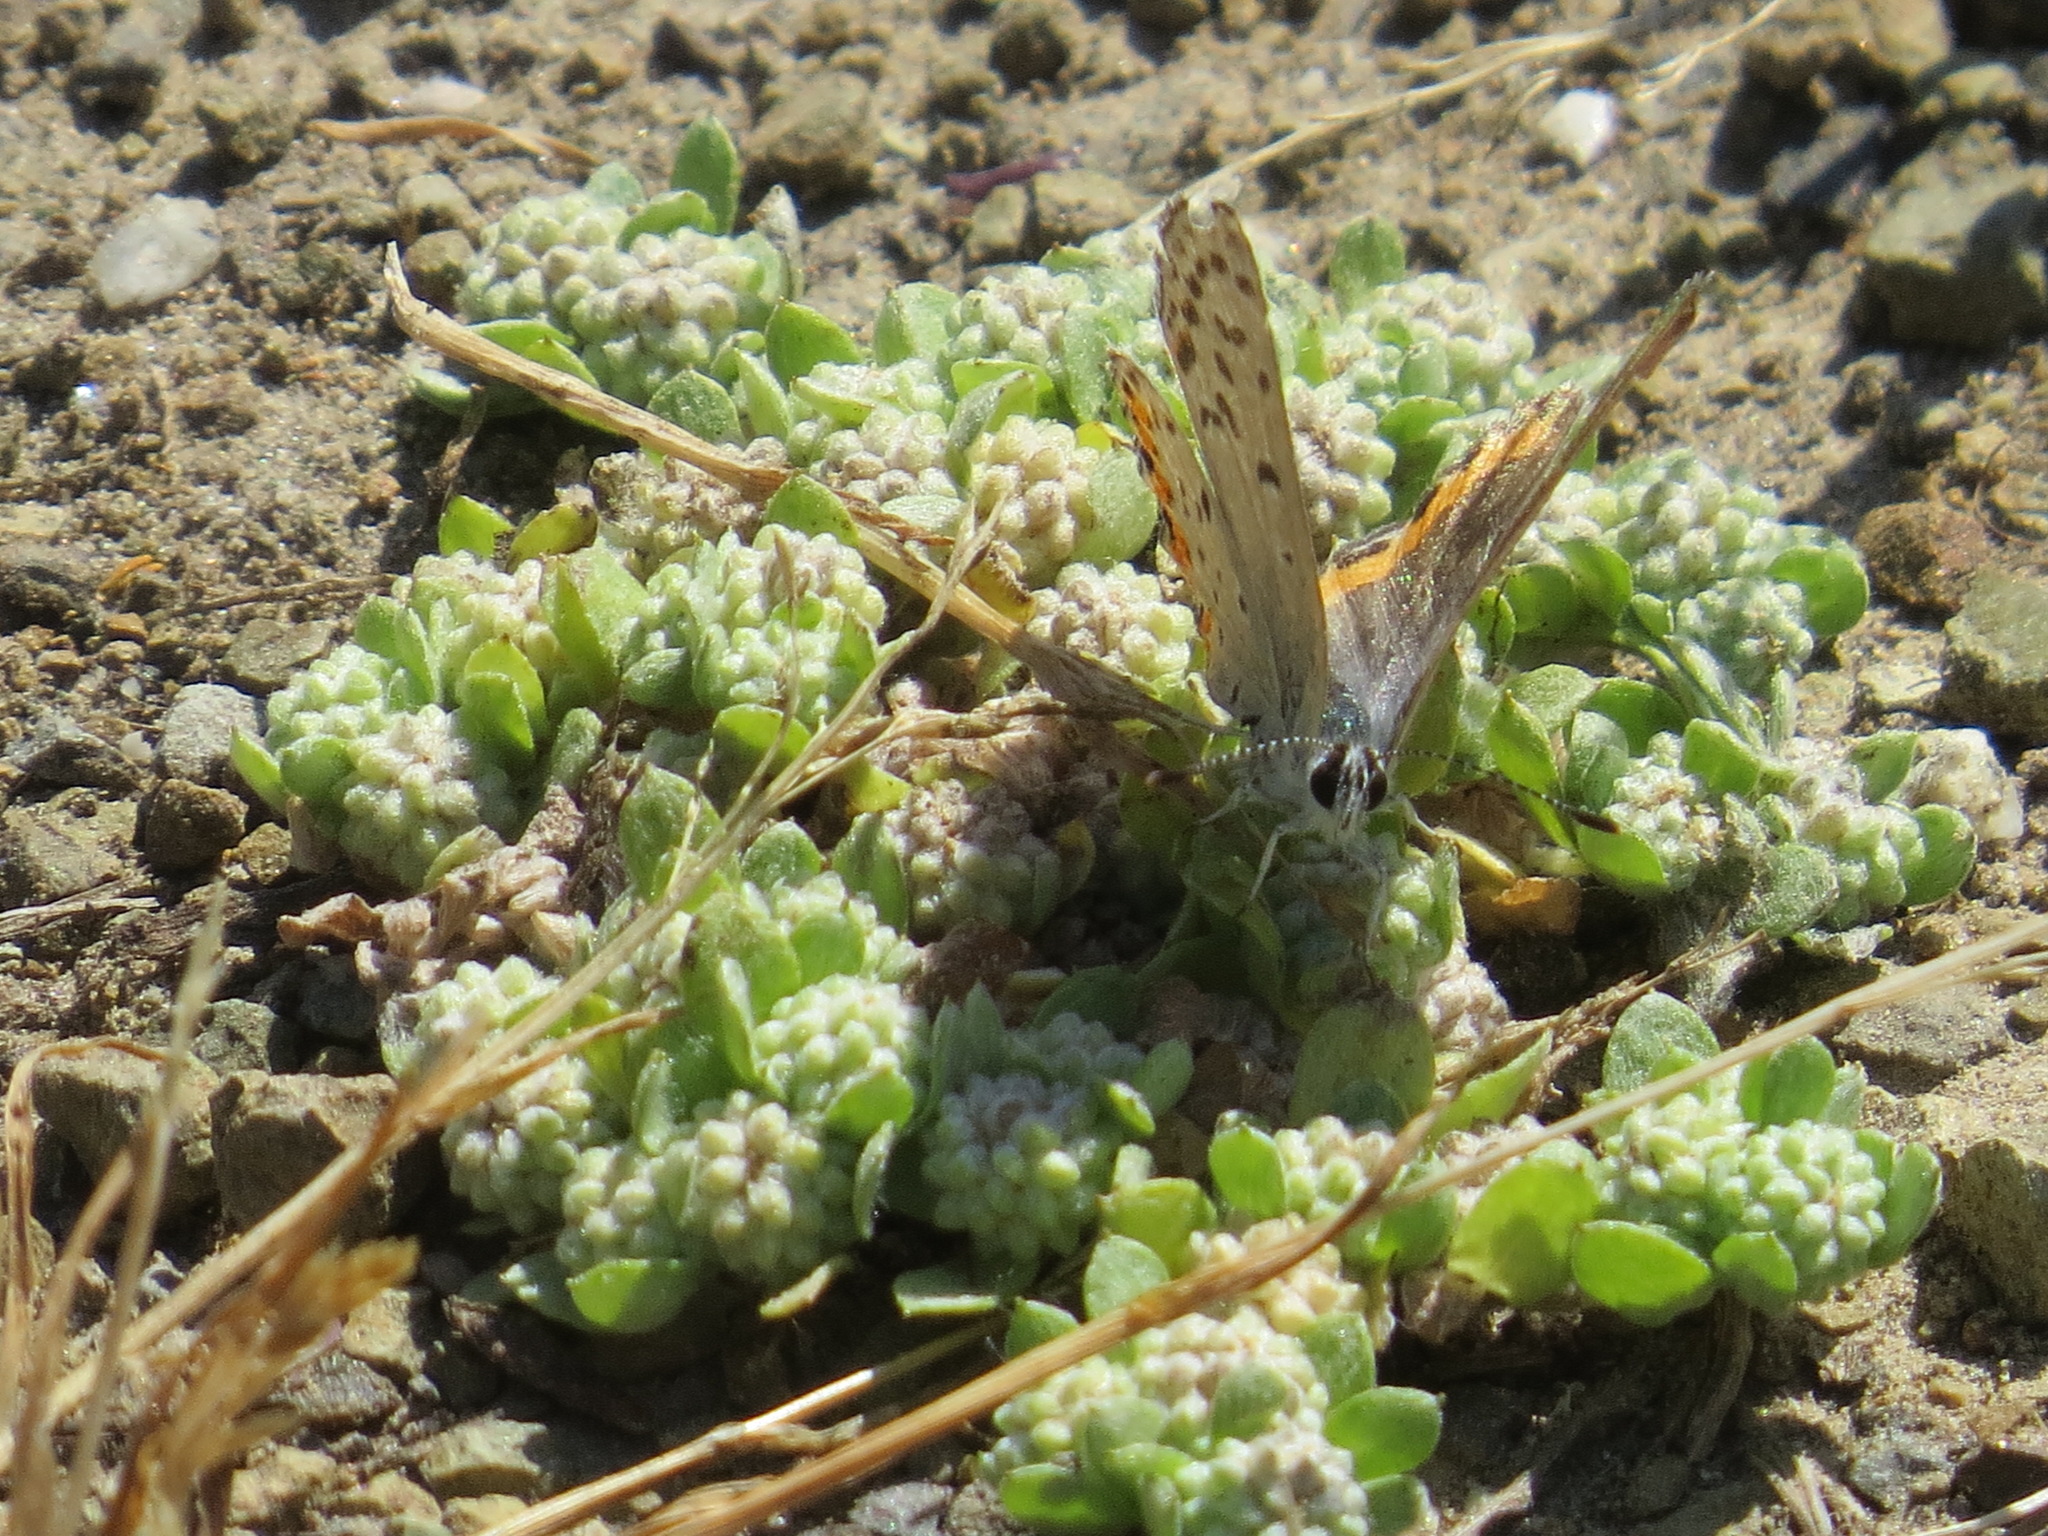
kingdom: Animalia
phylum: Arthropoda
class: Insecta
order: Lepidoptera
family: Lycaenidae
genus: Icaricia
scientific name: Icaricia acmon
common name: Acmon blue
